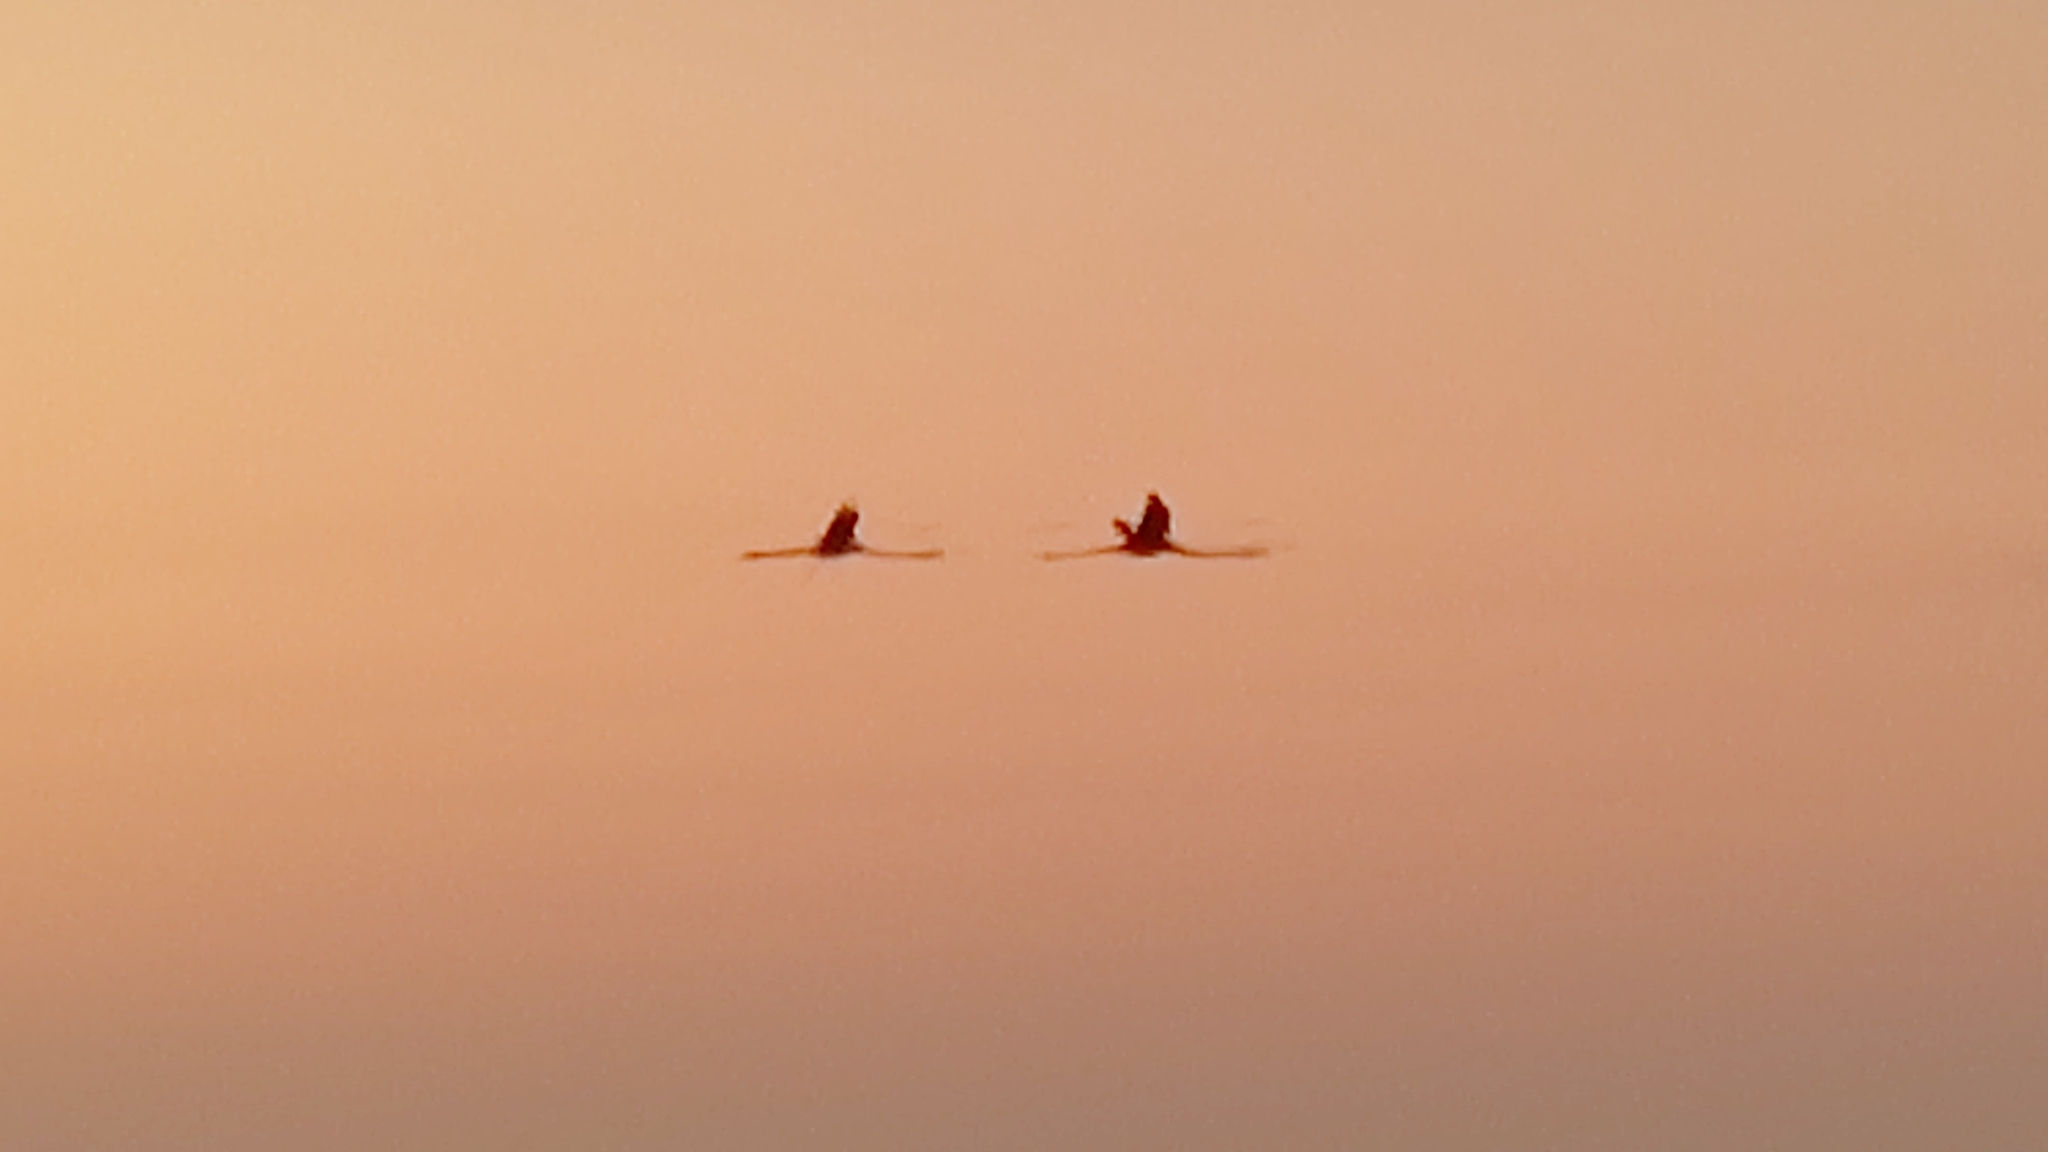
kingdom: Animalia
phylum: Chordata
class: Aves
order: Phoenicopteriformes
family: Phoenicopteridae
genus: Phoenicopterus
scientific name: Phoenicopterus ruber
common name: American flamingo
